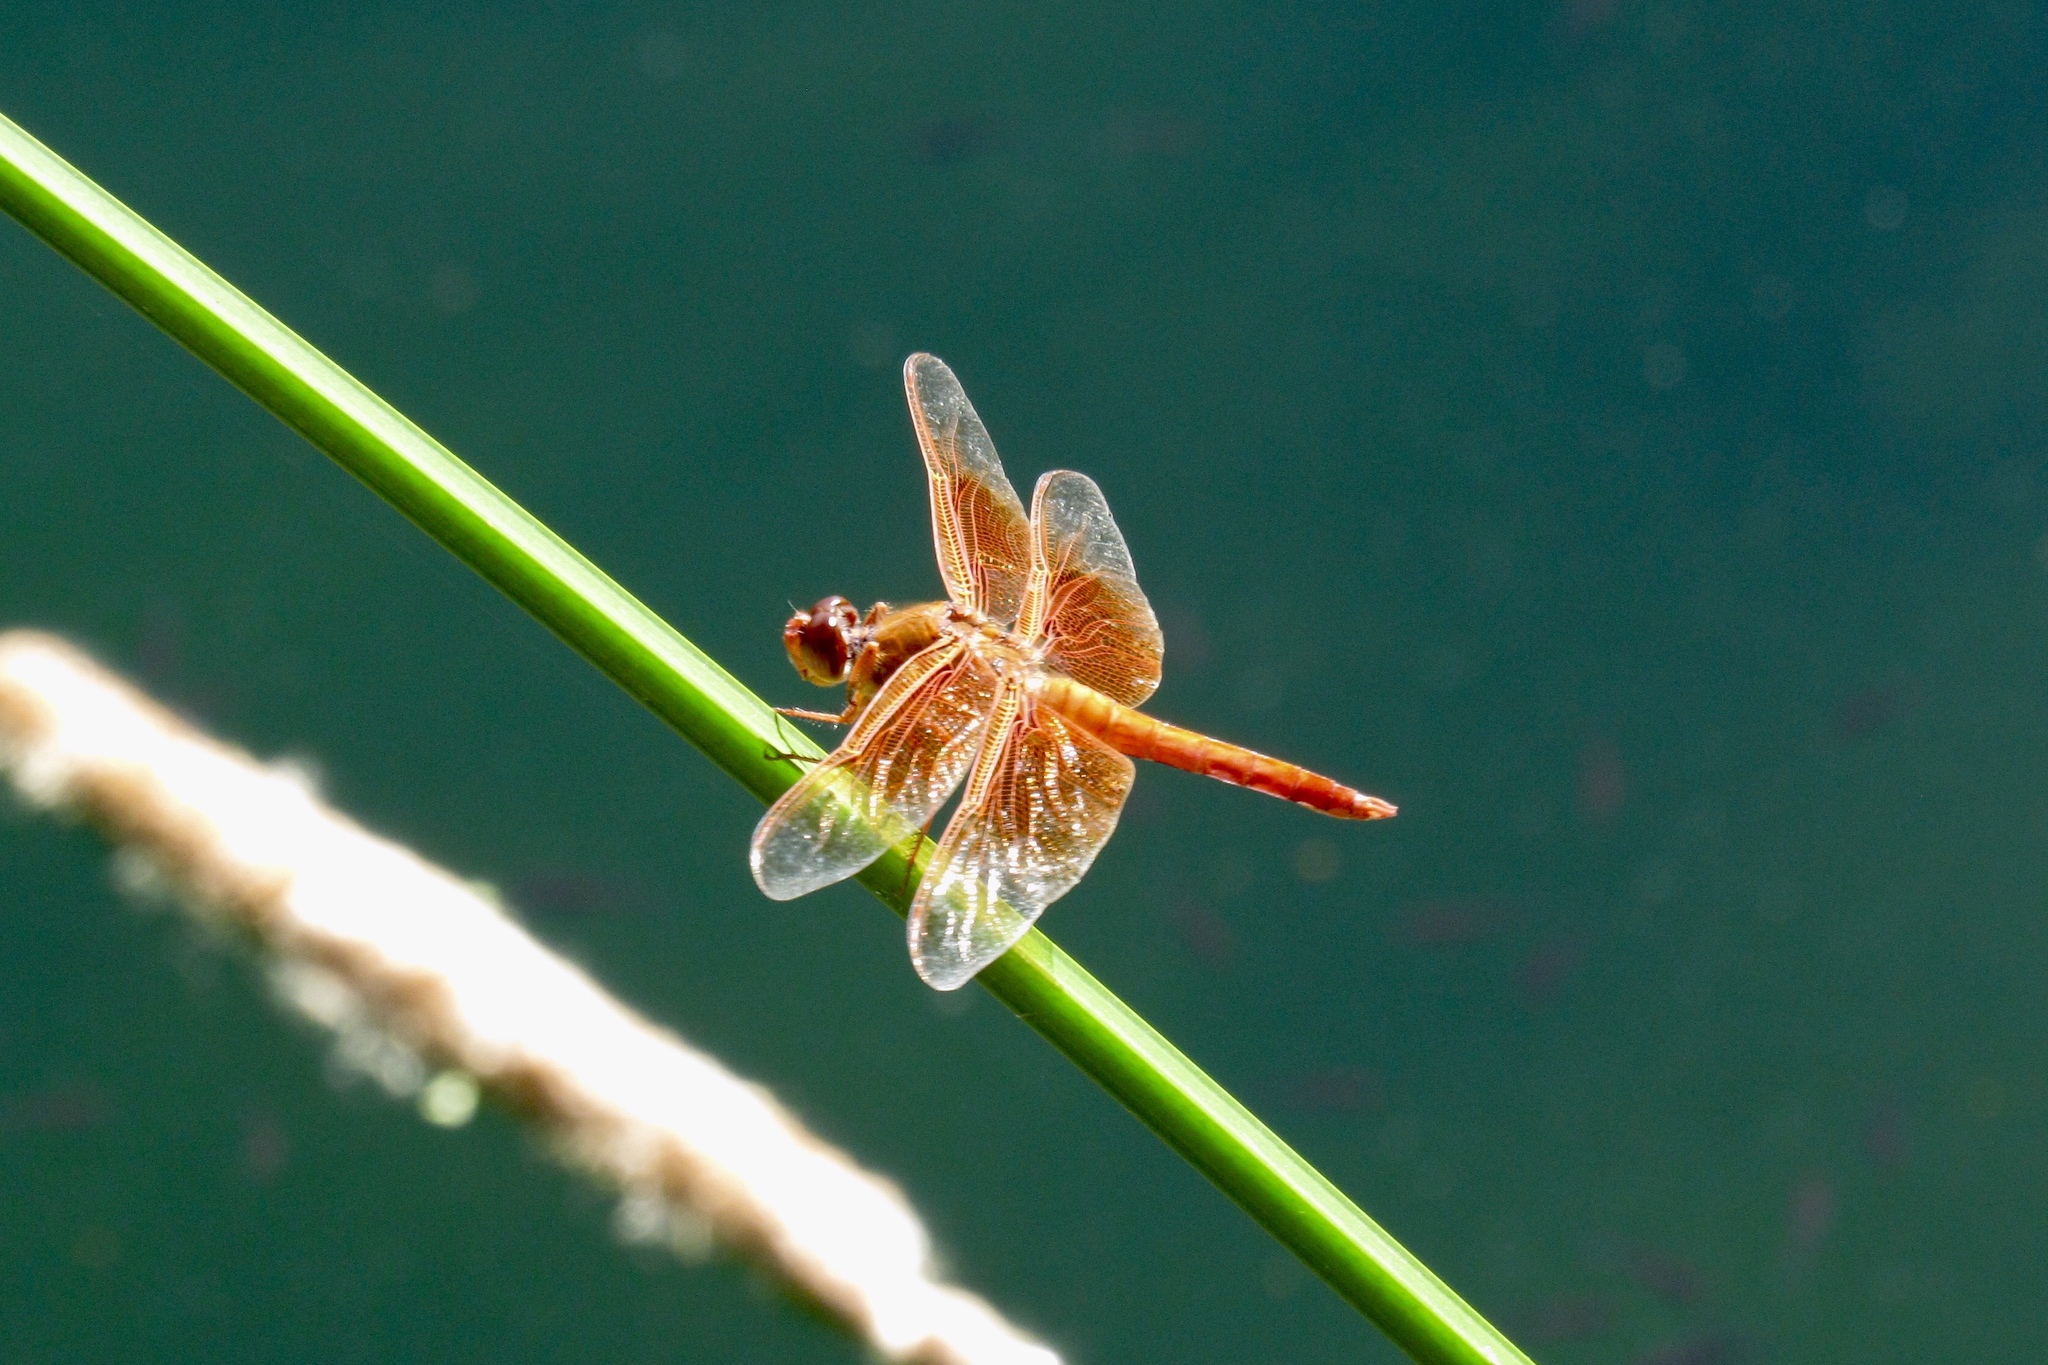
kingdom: Animalia
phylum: Arthropoda
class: Insecta
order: Odonata
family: Libellulidae
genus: Libellula
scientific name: Libellula saturata
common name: Flame skimmer
